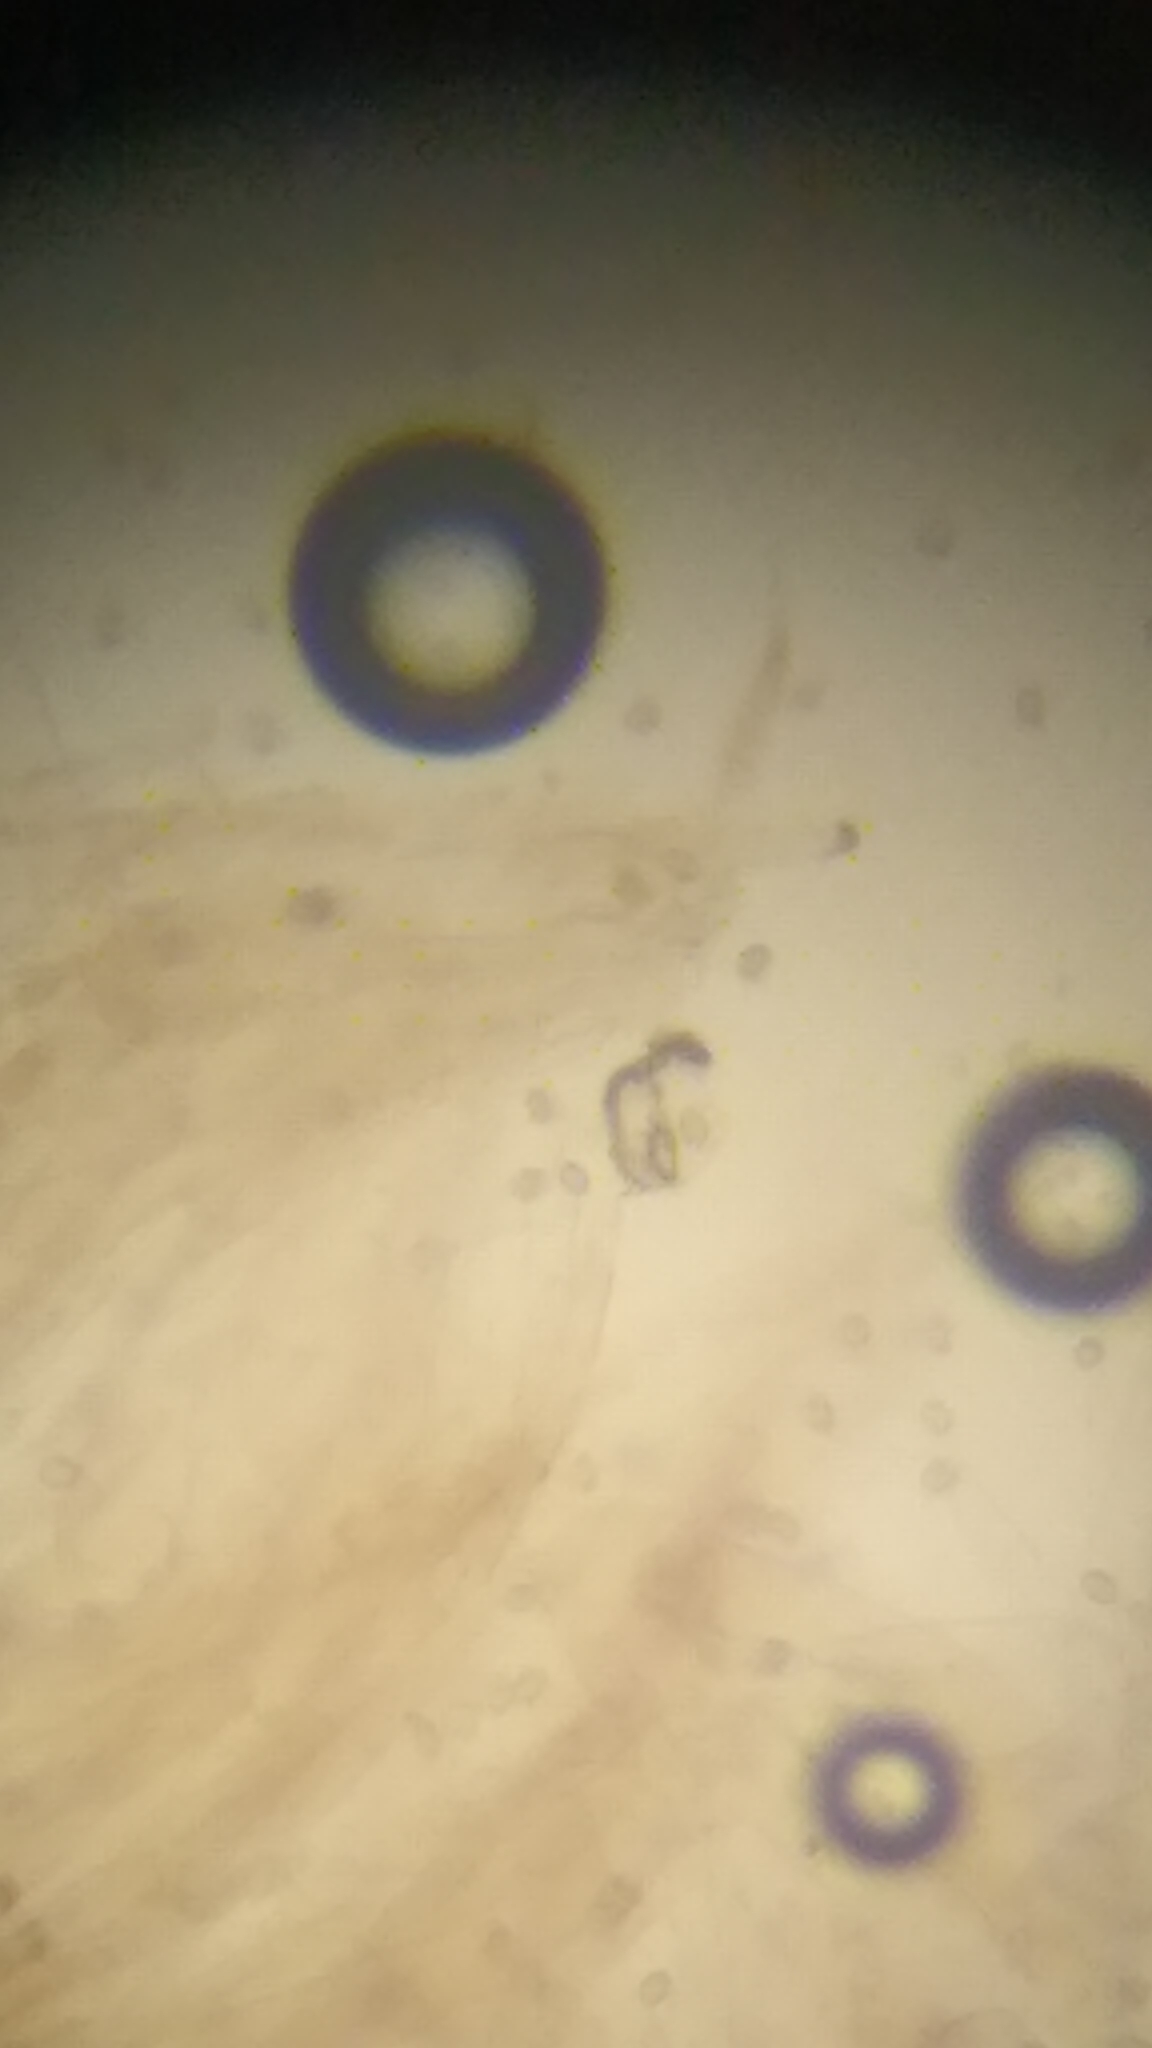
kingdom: Fungi
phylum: Basidiomycota
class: Agaricomycetes
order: Agaricales
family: Pluteaceae
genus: Pluteus
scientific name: Pluteus oreibatus
